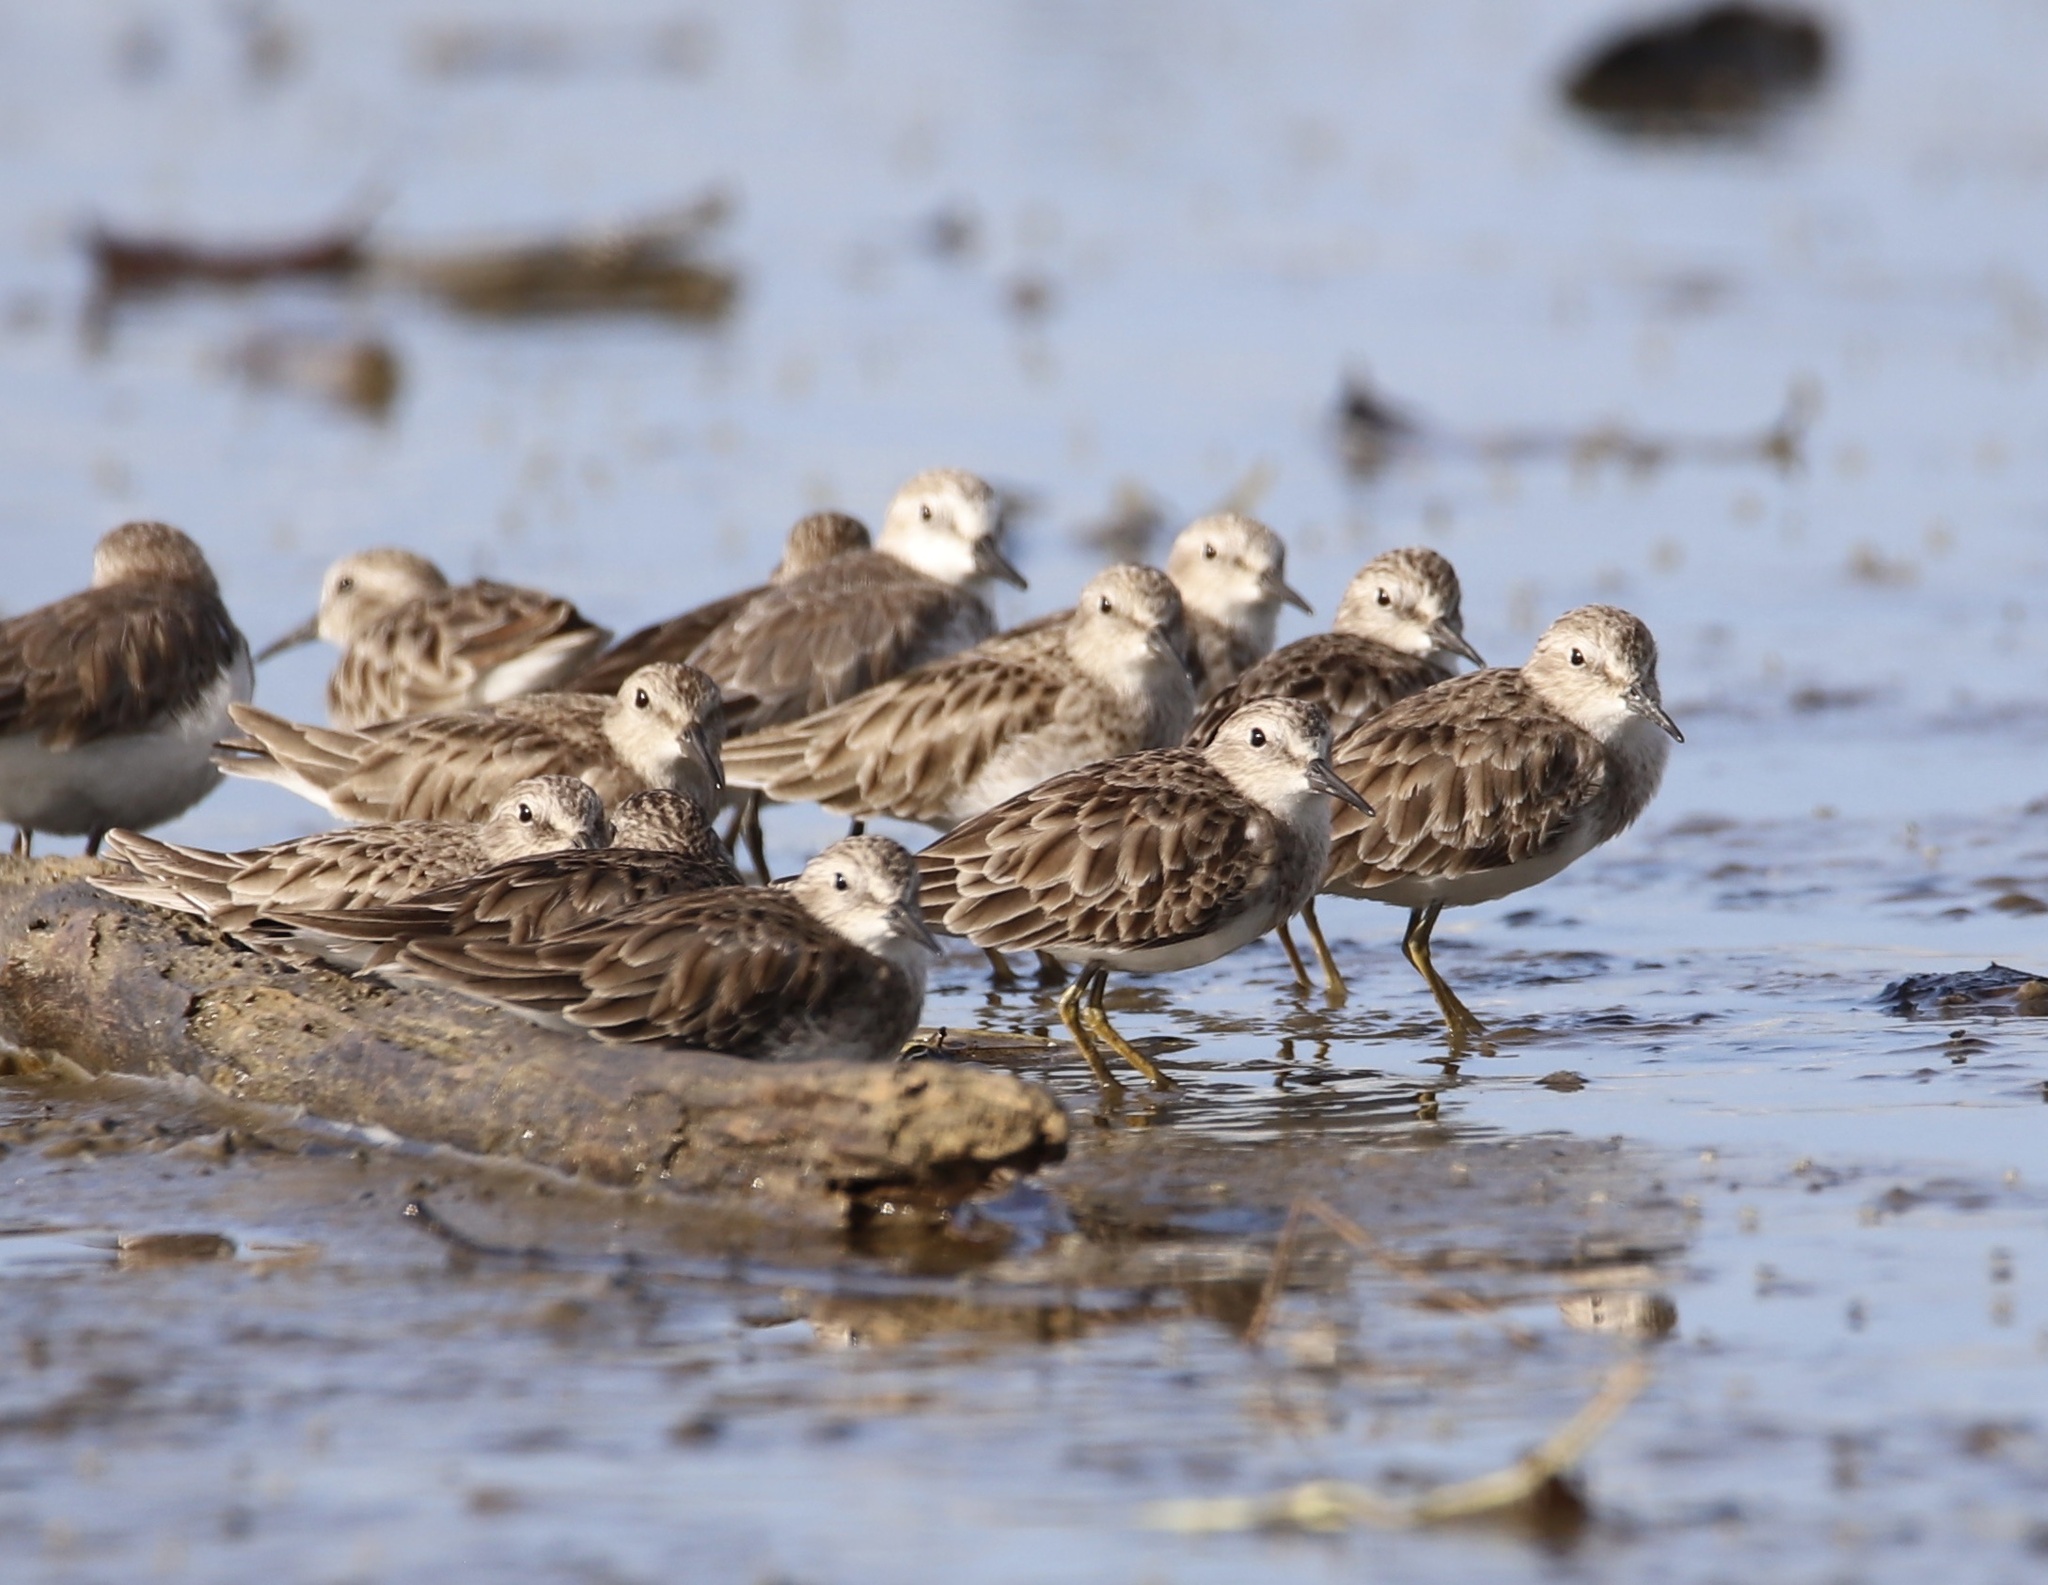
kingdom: Animalia
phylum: Chordata
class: Aves
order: Charadriiformes
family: Scolopacidae
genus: Calidris
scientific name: Calidris minutilla
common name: Least sandpiper
